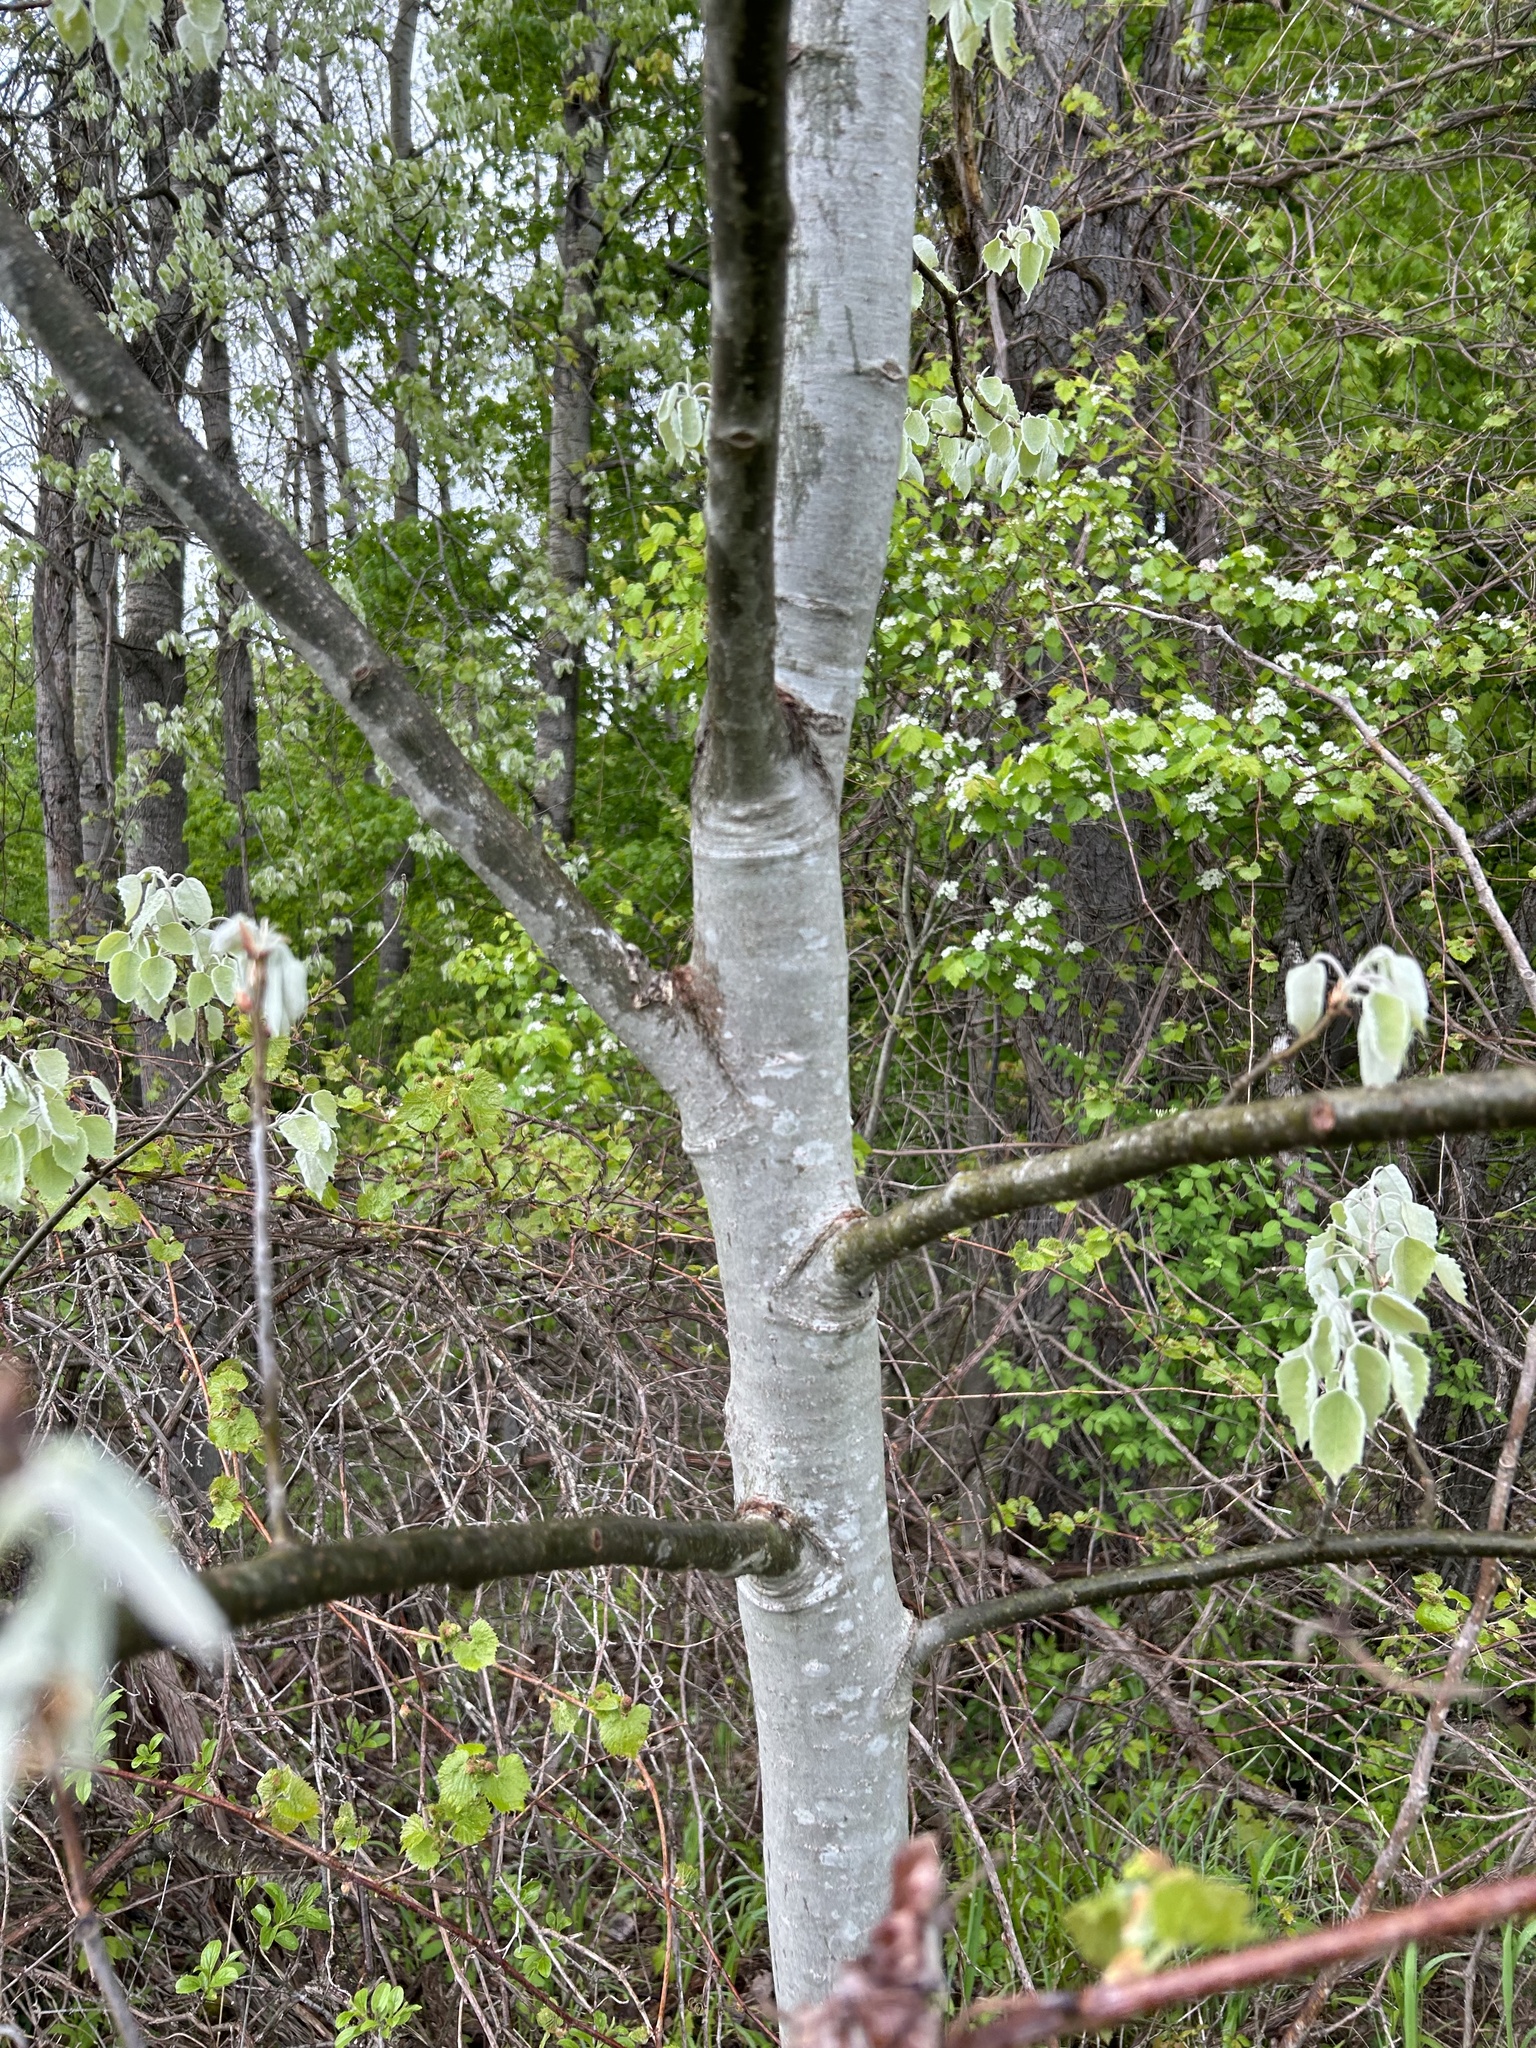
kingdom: Plantae
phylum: Tracheophyta
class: Magnoliopsida
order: Malpighiales
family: Salicaceae
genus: Populus
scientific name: Populus grandidentata
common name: Bigtooth aspen
